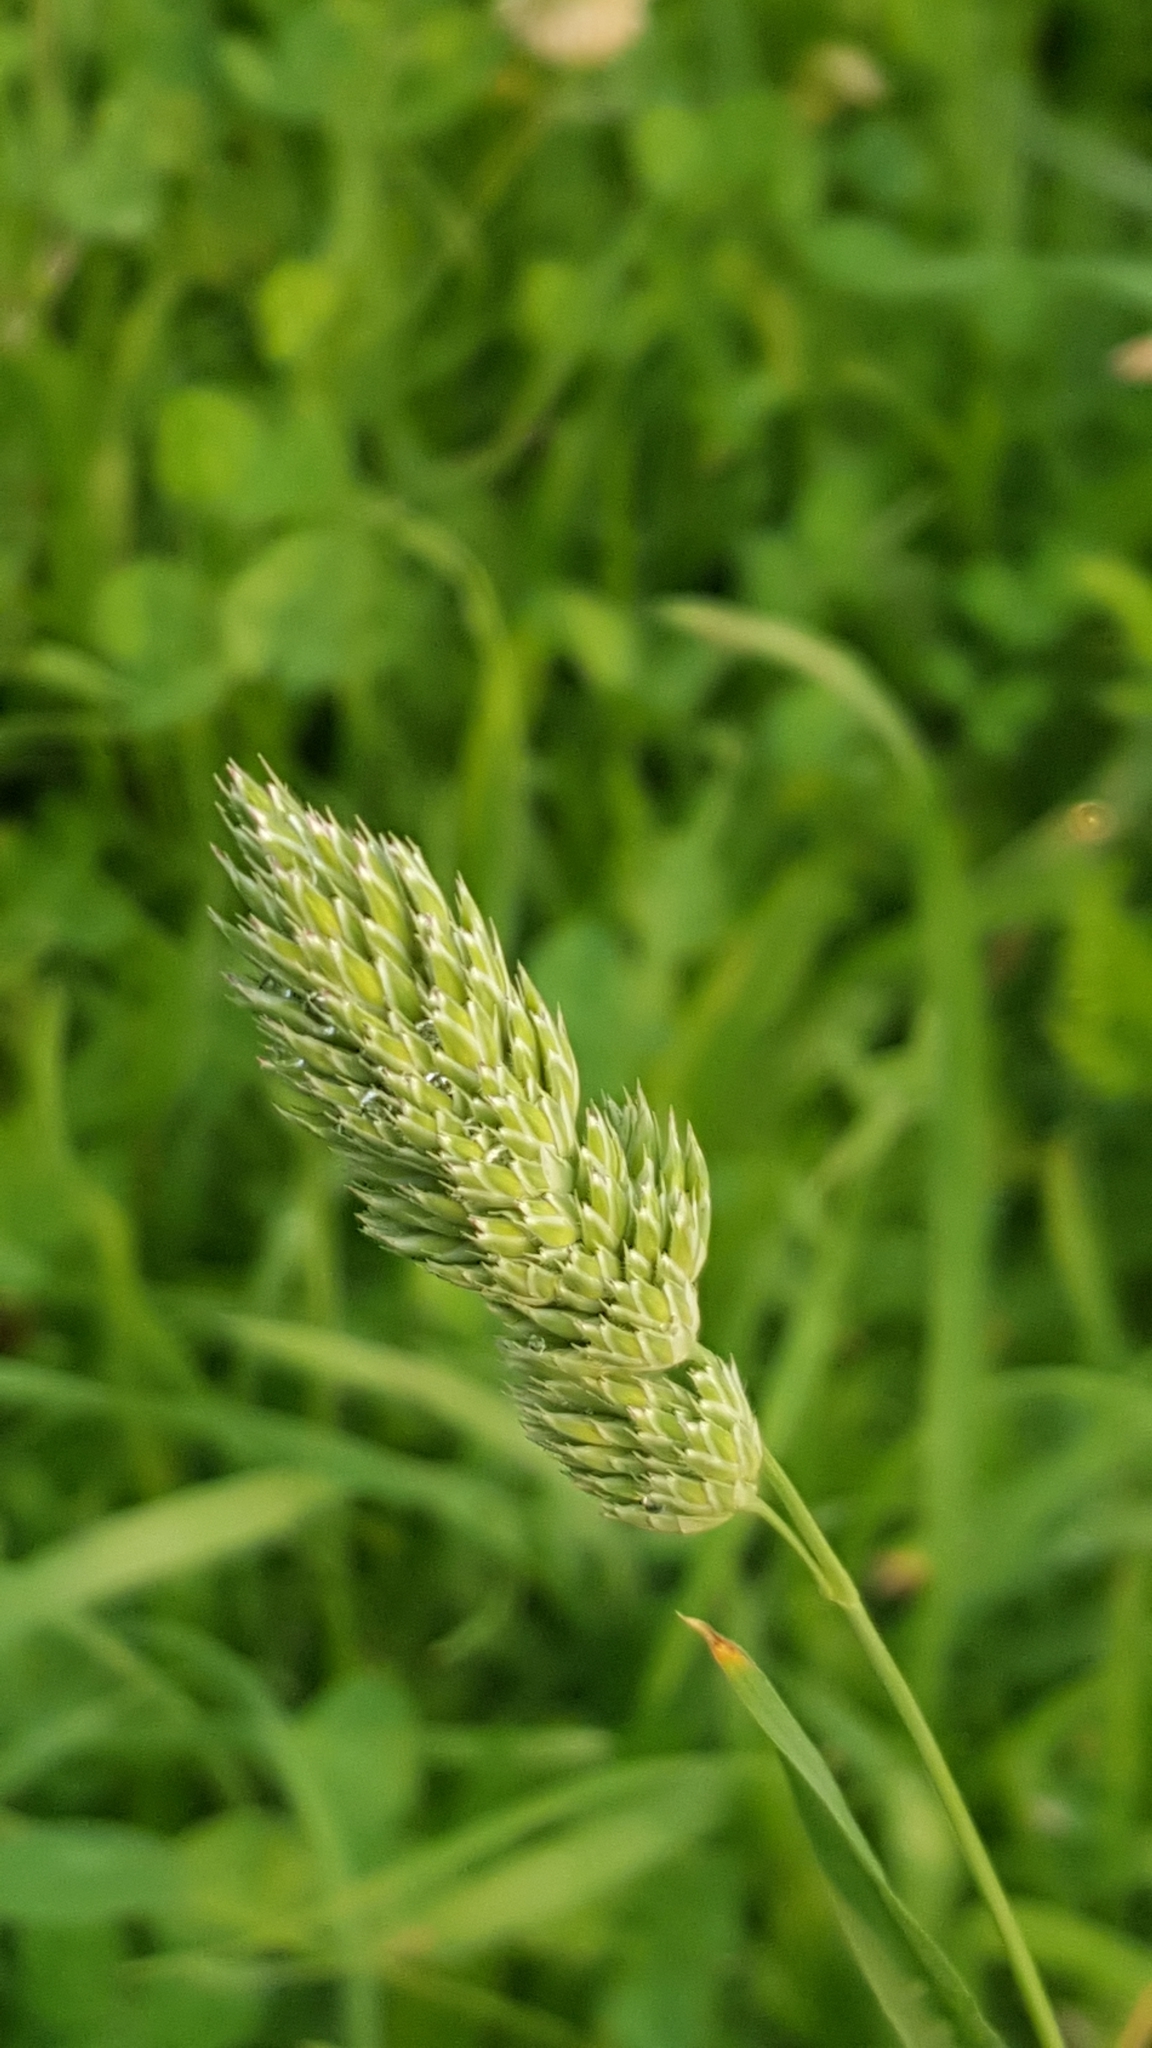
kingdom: Plantae
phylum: Tracheophyta
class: Liliopsida
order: Poales
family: Poaceae
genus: Dactylis
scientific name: Dactylis glomerata
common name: Orchardgrass
